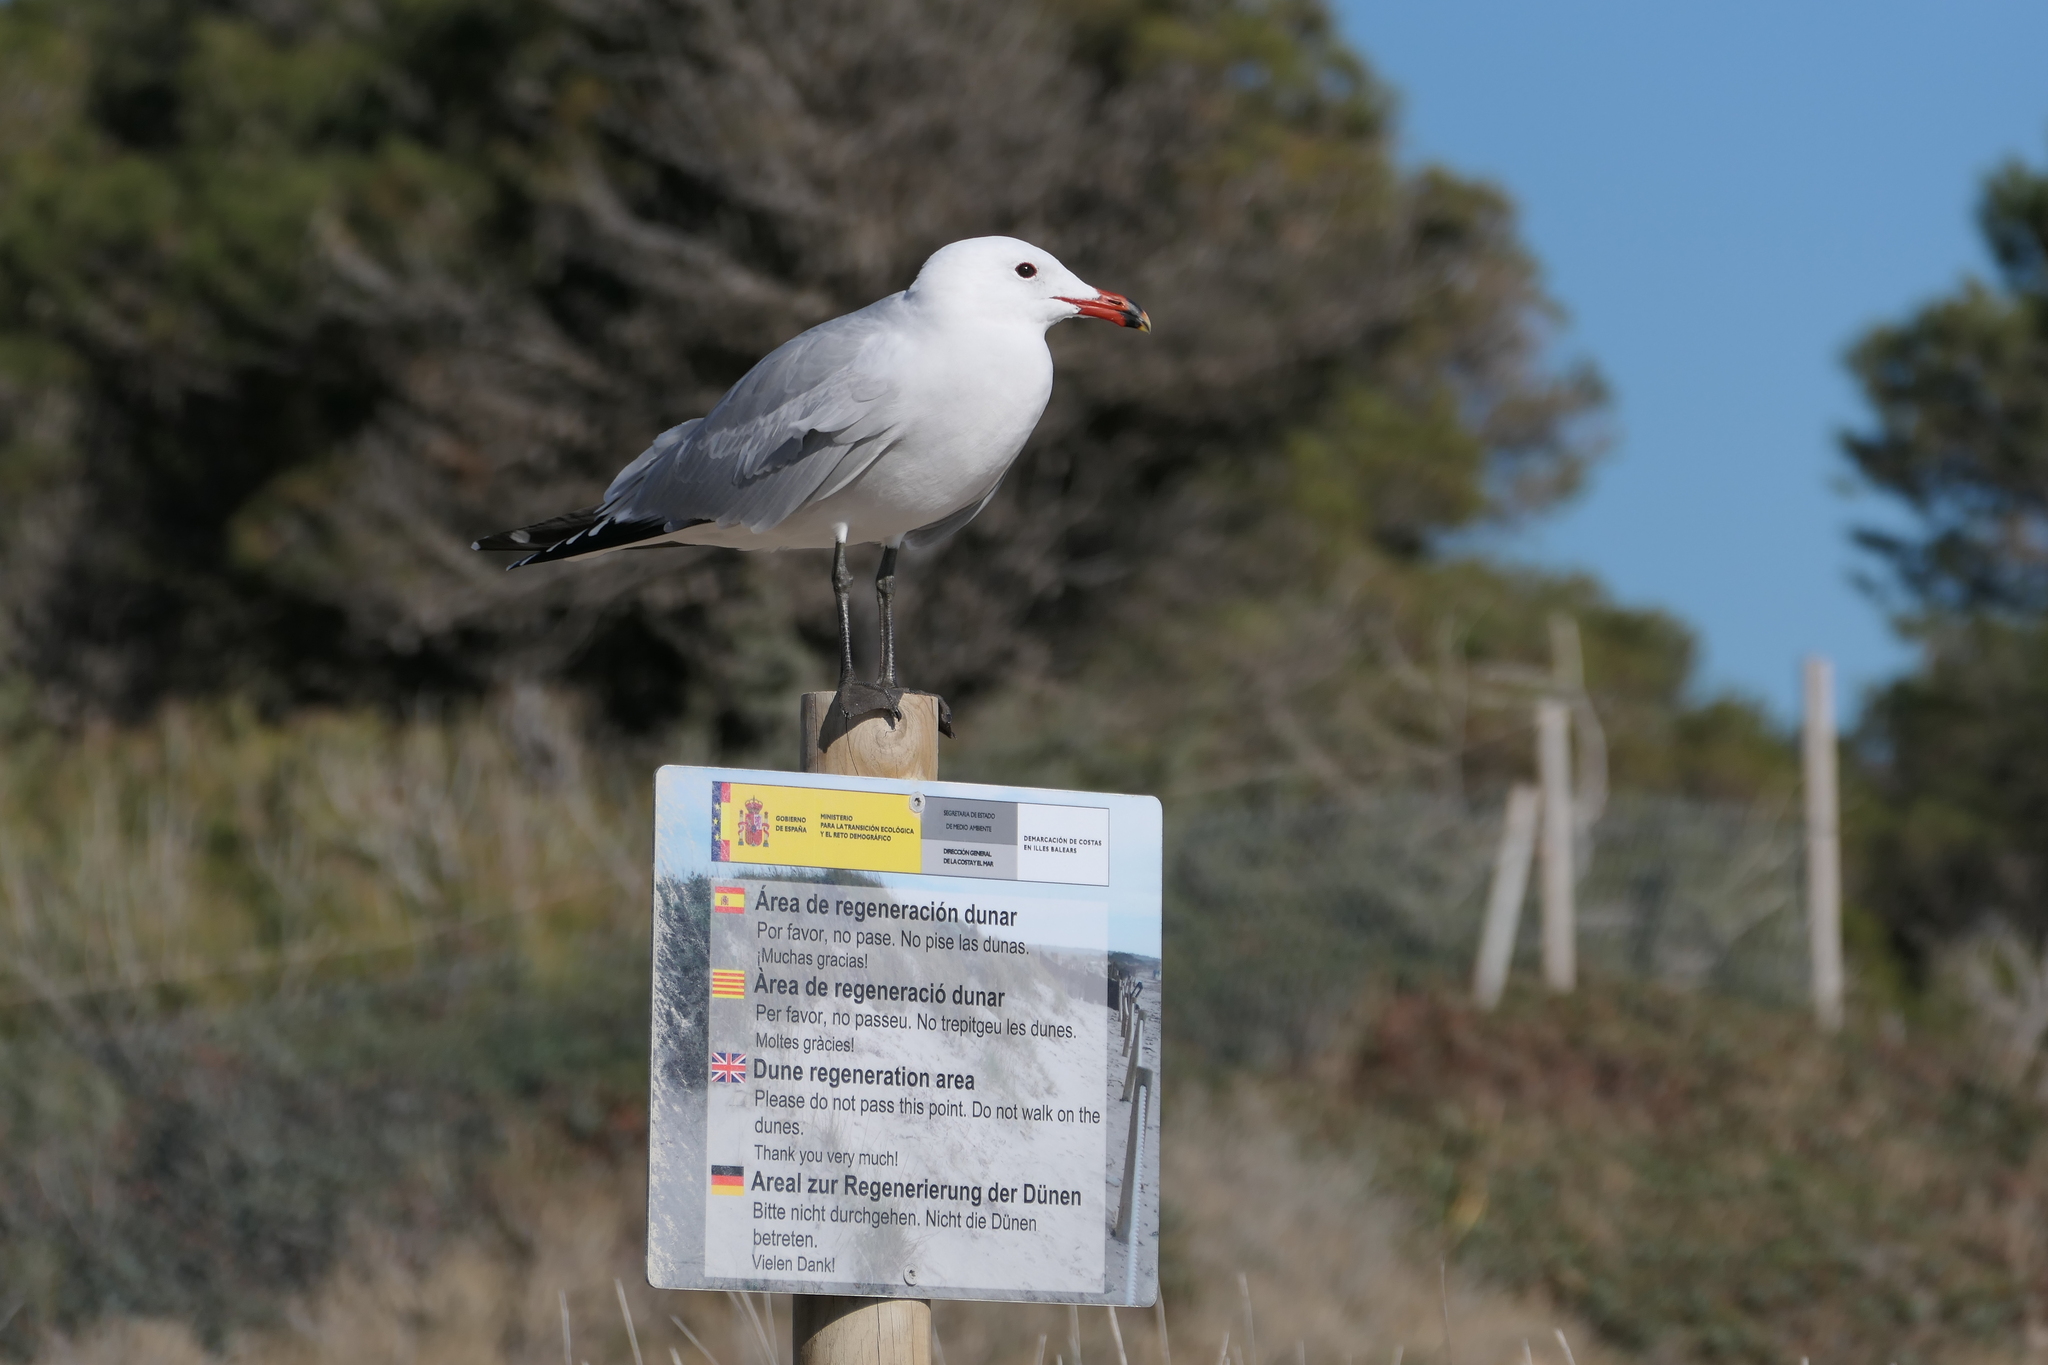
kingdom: Animalia
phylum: Chordata
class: Aves
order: Charadriiformes
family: Laridae
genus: Ichthyaetus
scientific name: Ichthyaetus audouinii
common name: Audouin's gull
